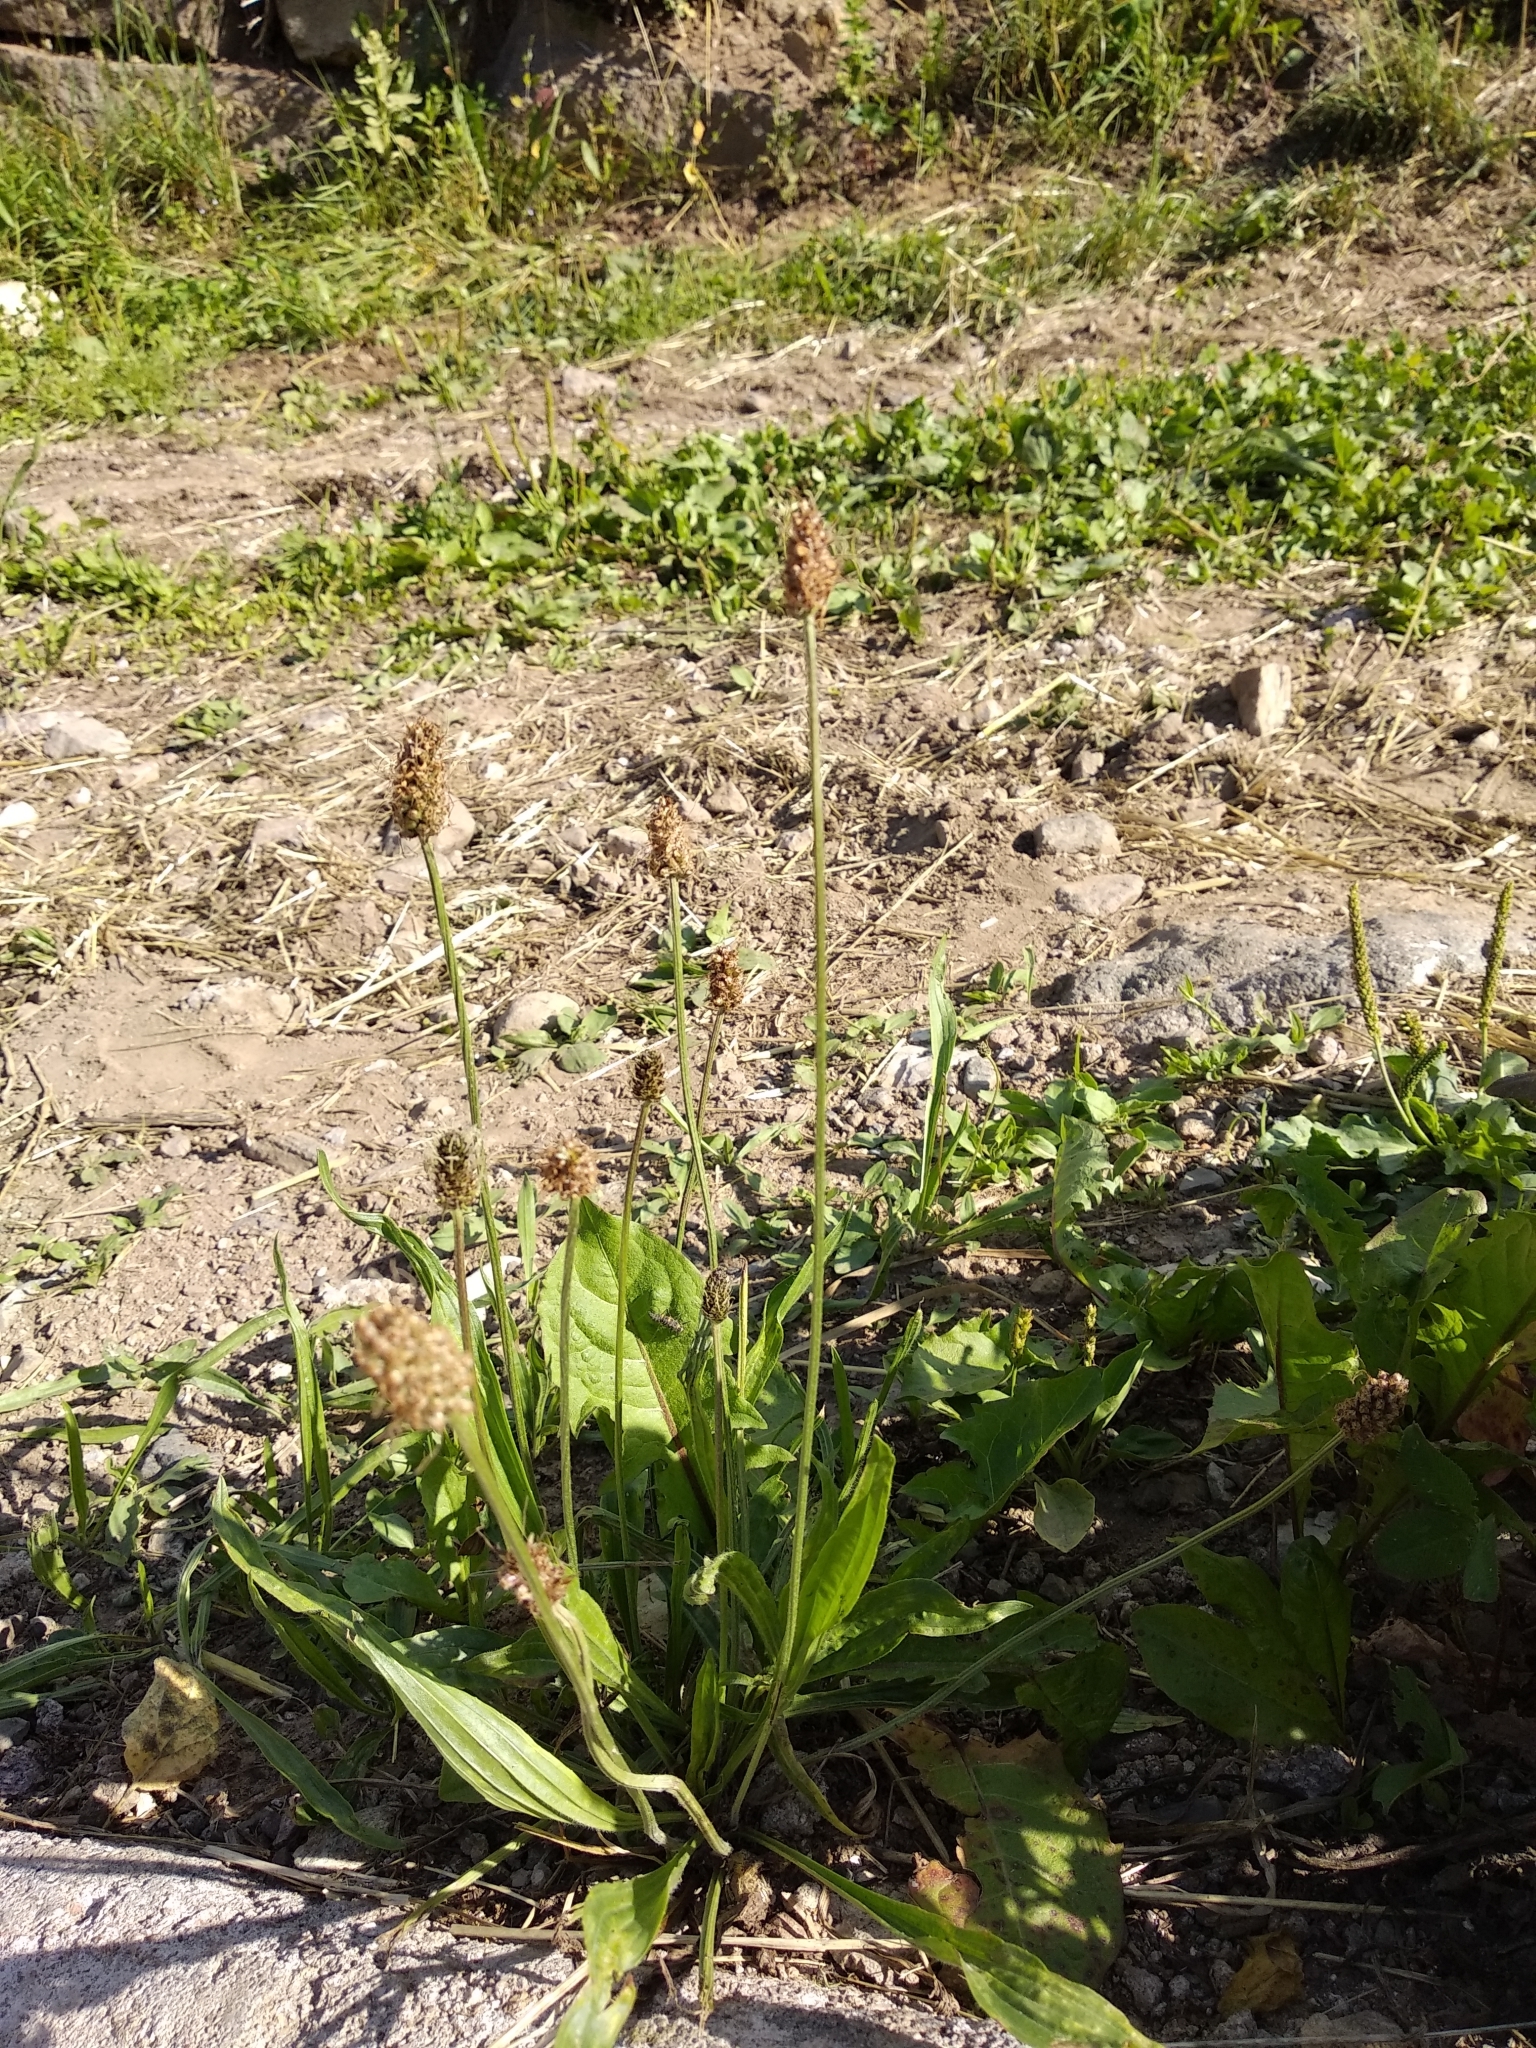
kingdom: Plantae
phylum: Tracheophyta
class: Magnoliopsida
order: Lamiales
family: Plantaginaceae
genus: Plantago
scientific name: Plantago lanceolata
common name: Ribwort plantain
